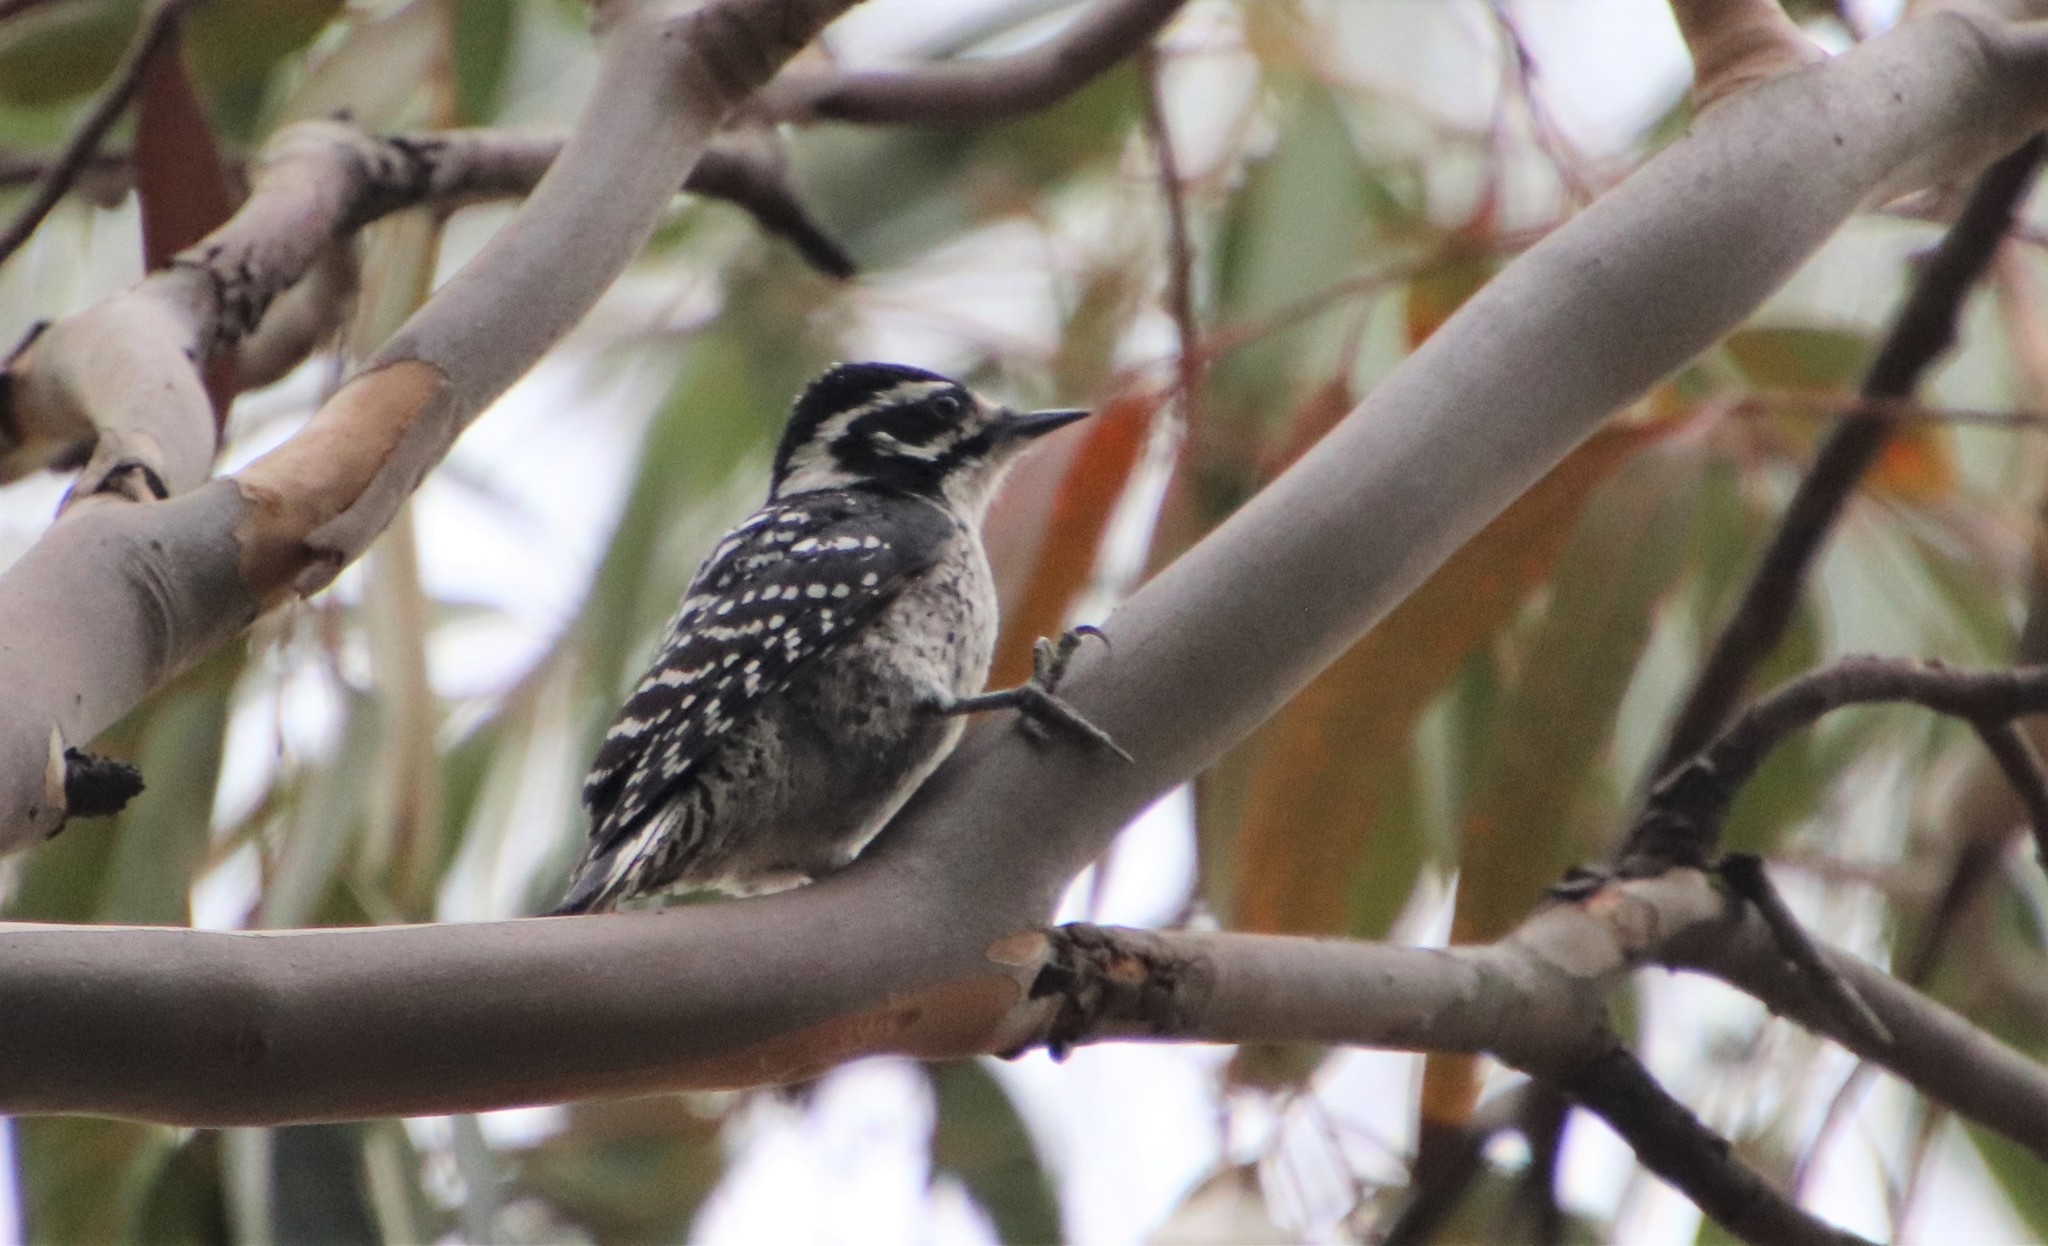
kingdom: Animalia
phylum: Chordata
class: Aves
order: Piciformes
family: Picidae
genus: Dryobates
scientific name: Dryobates nuttallii
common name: Nuttall's woodpecker
